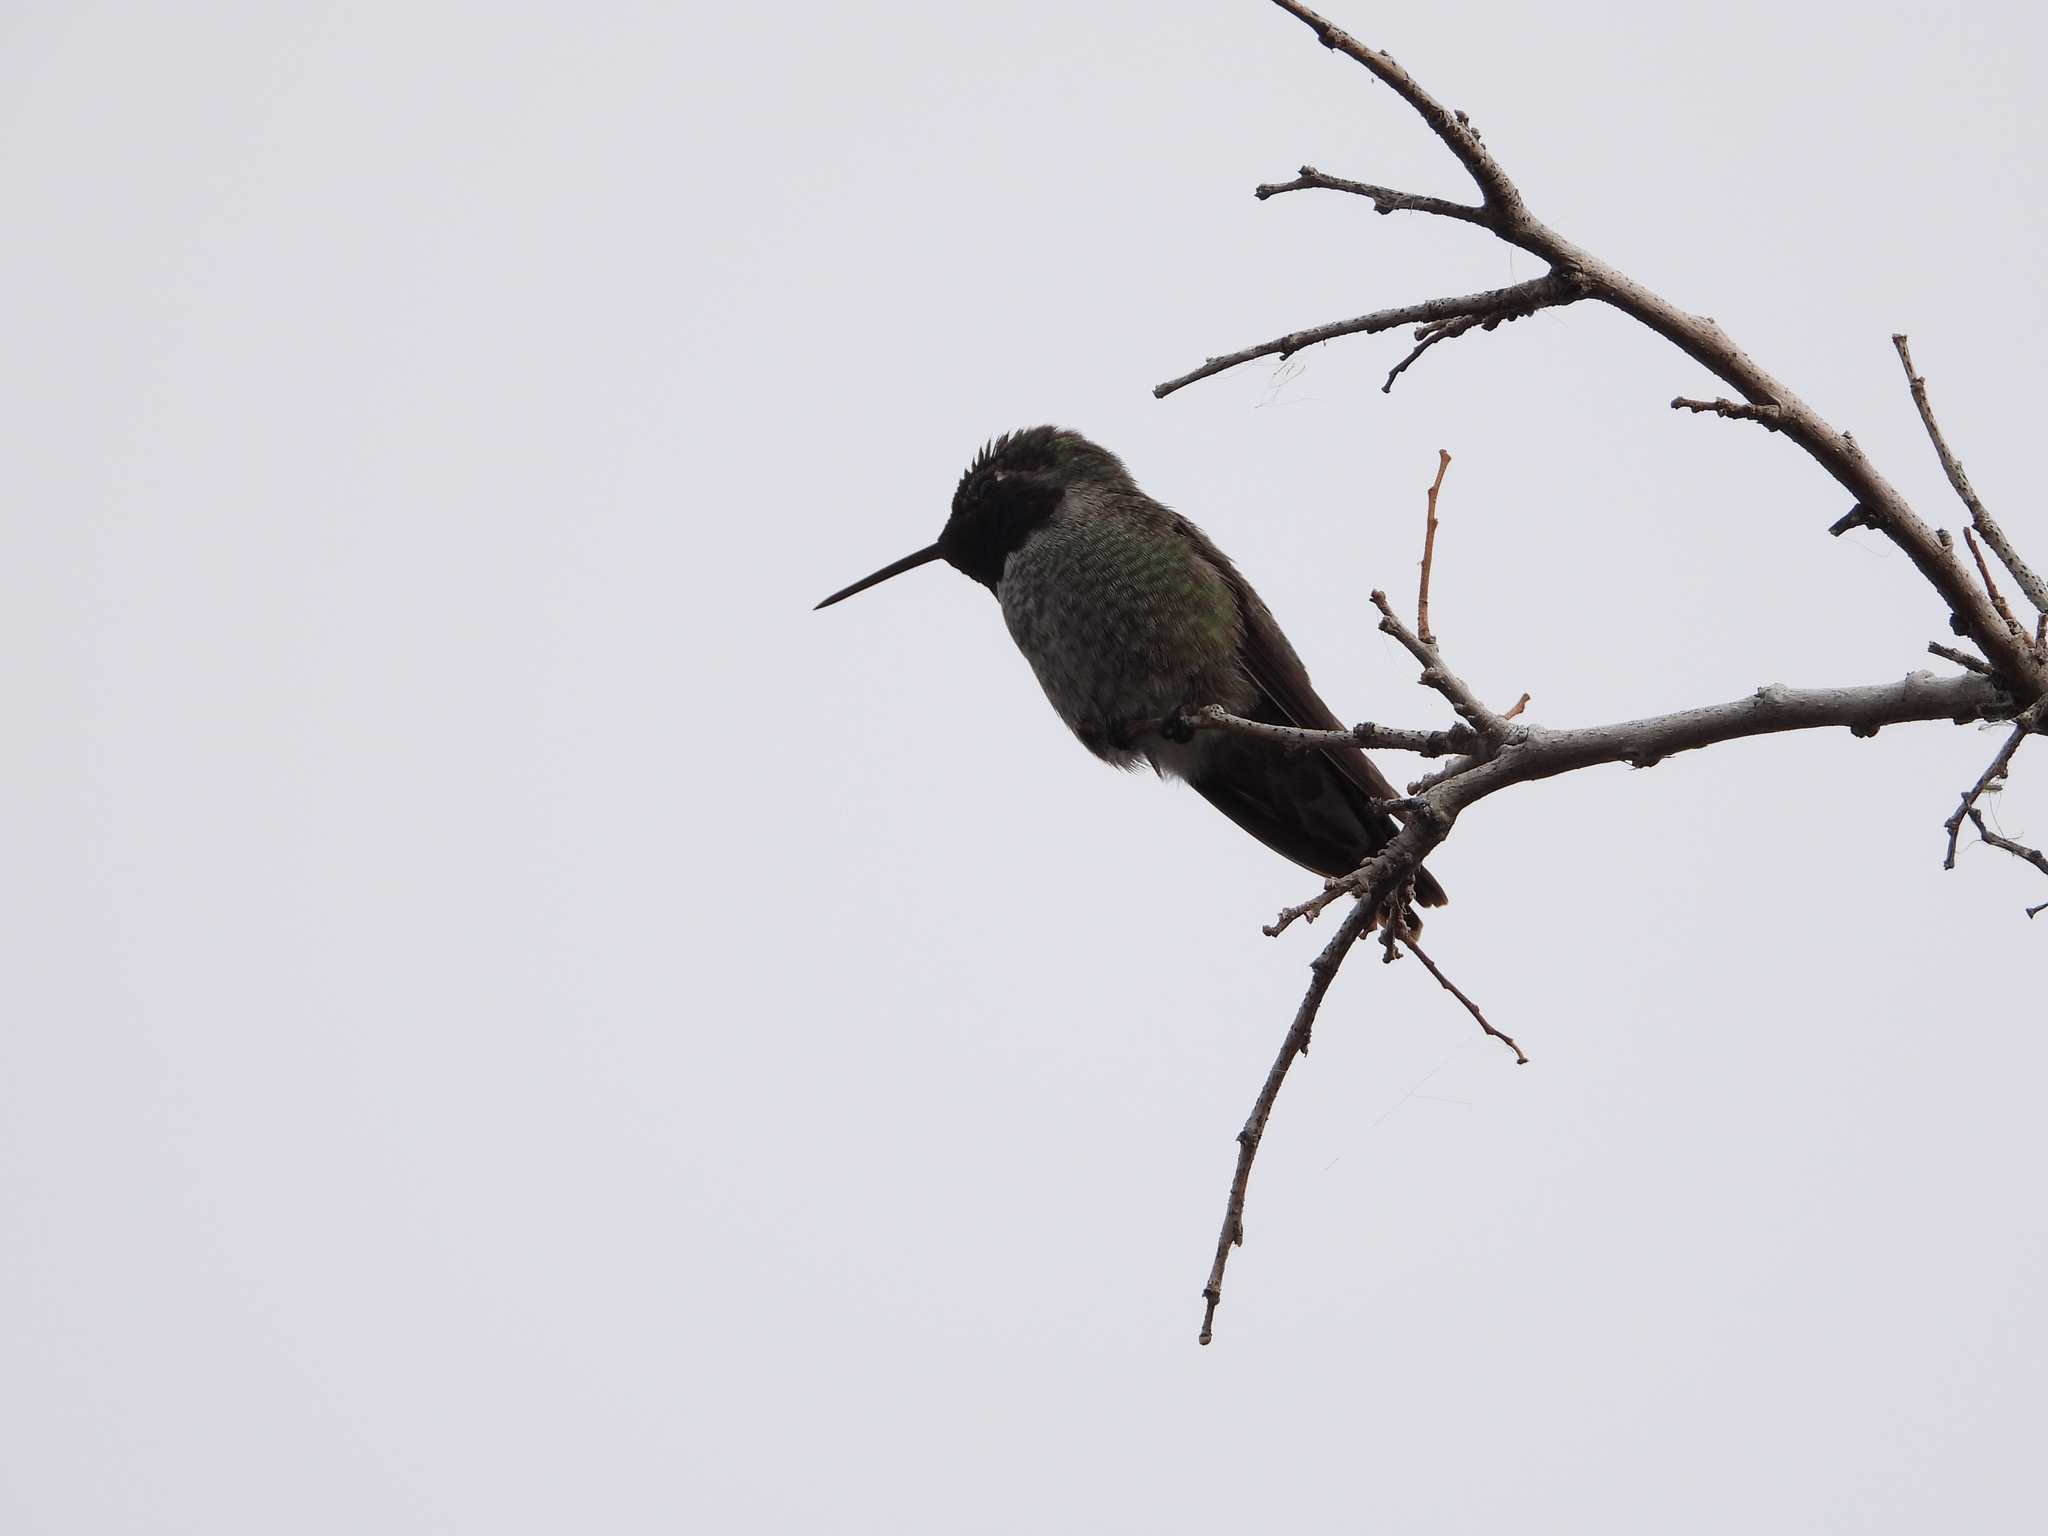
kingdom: Animalia
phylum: Chordata
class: Aves
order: Apodiformes
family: Trochilidae
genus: Calypte
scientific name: Calypte anna
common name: Anna's hummingbird
